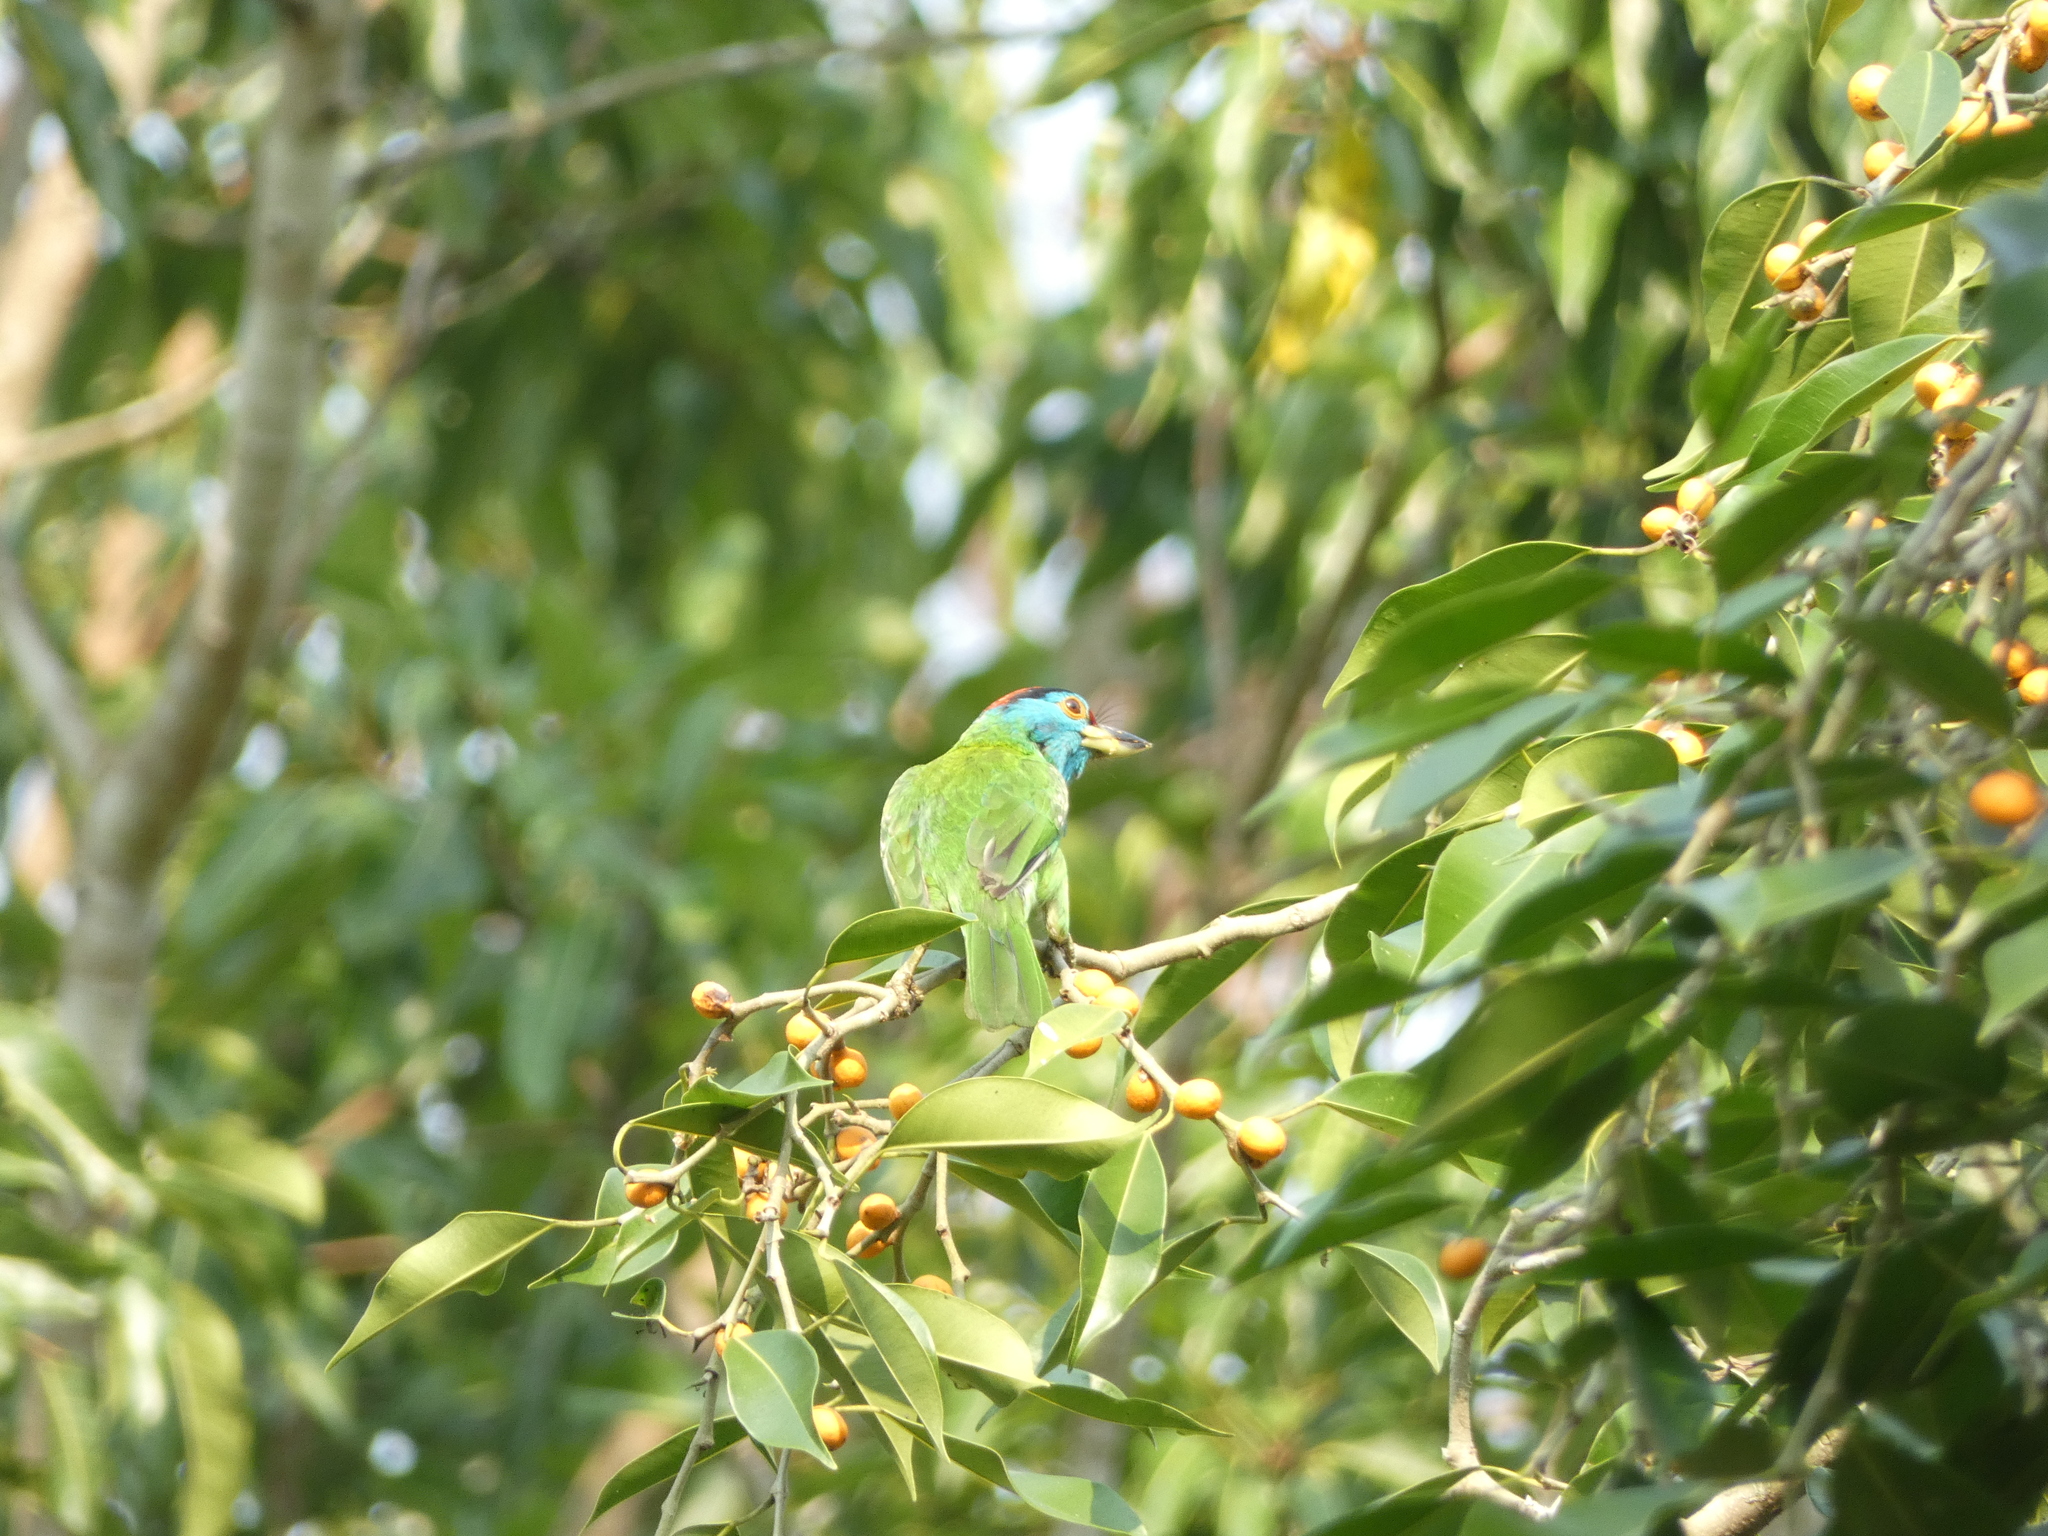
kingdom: Animalia
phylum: Chordata
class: Aves
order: Piciformes
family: Megalaimidae
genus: Psilopogon
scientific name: Psilopogon asiaticus
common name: Blue-throated barbet
